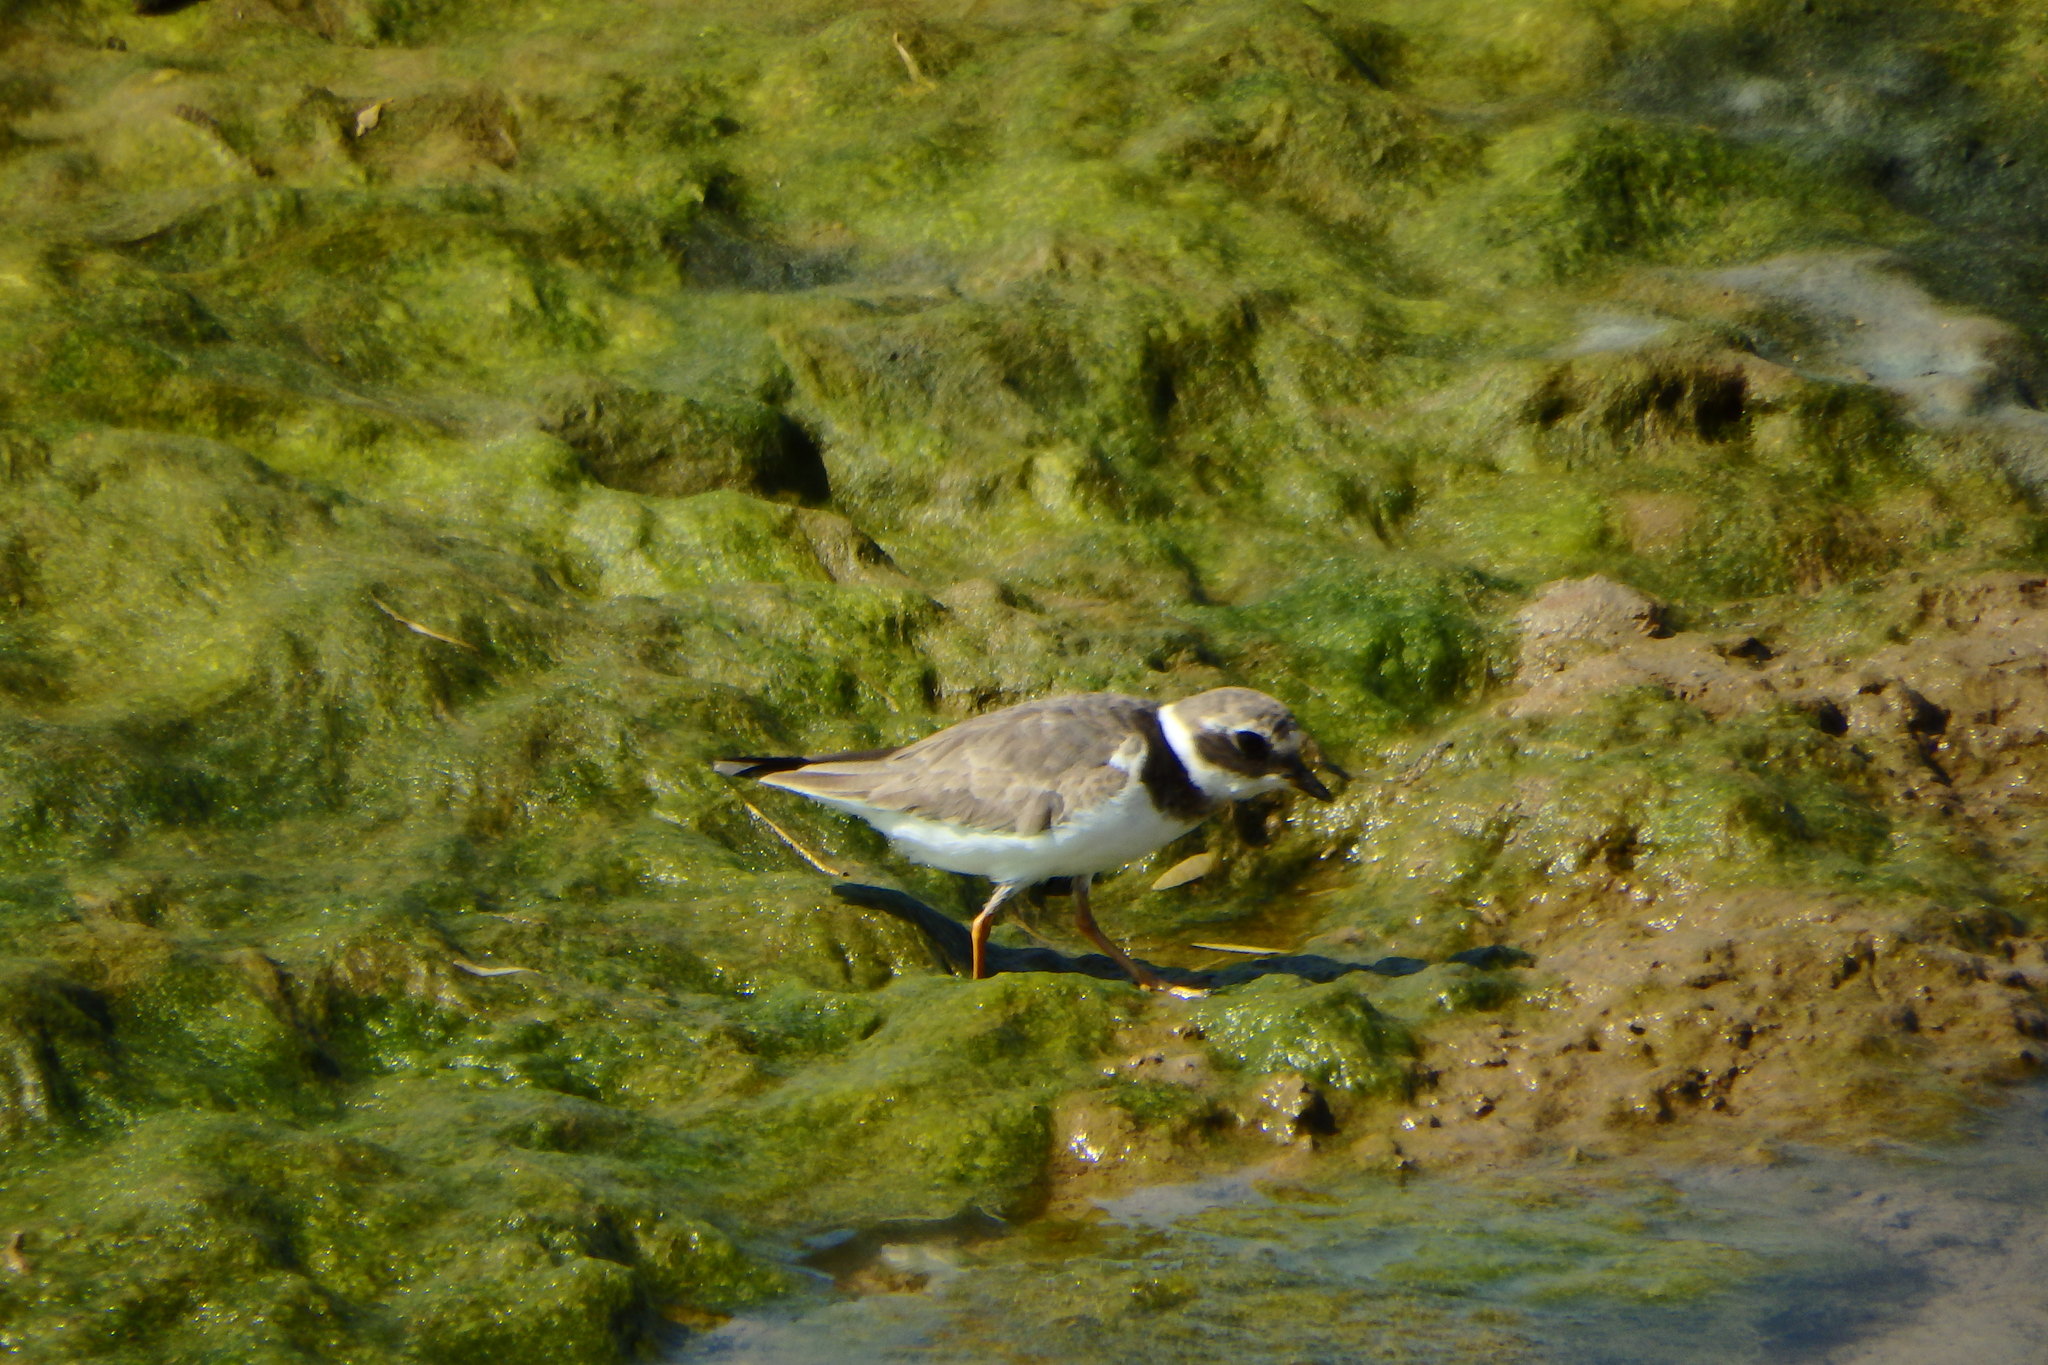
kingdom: Animalia
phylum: Chordata
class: Aves
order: Charadriiformes
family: Charadriidae
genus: Charadrius
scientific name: Charadrius hiaticula
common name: Common ringed plover
